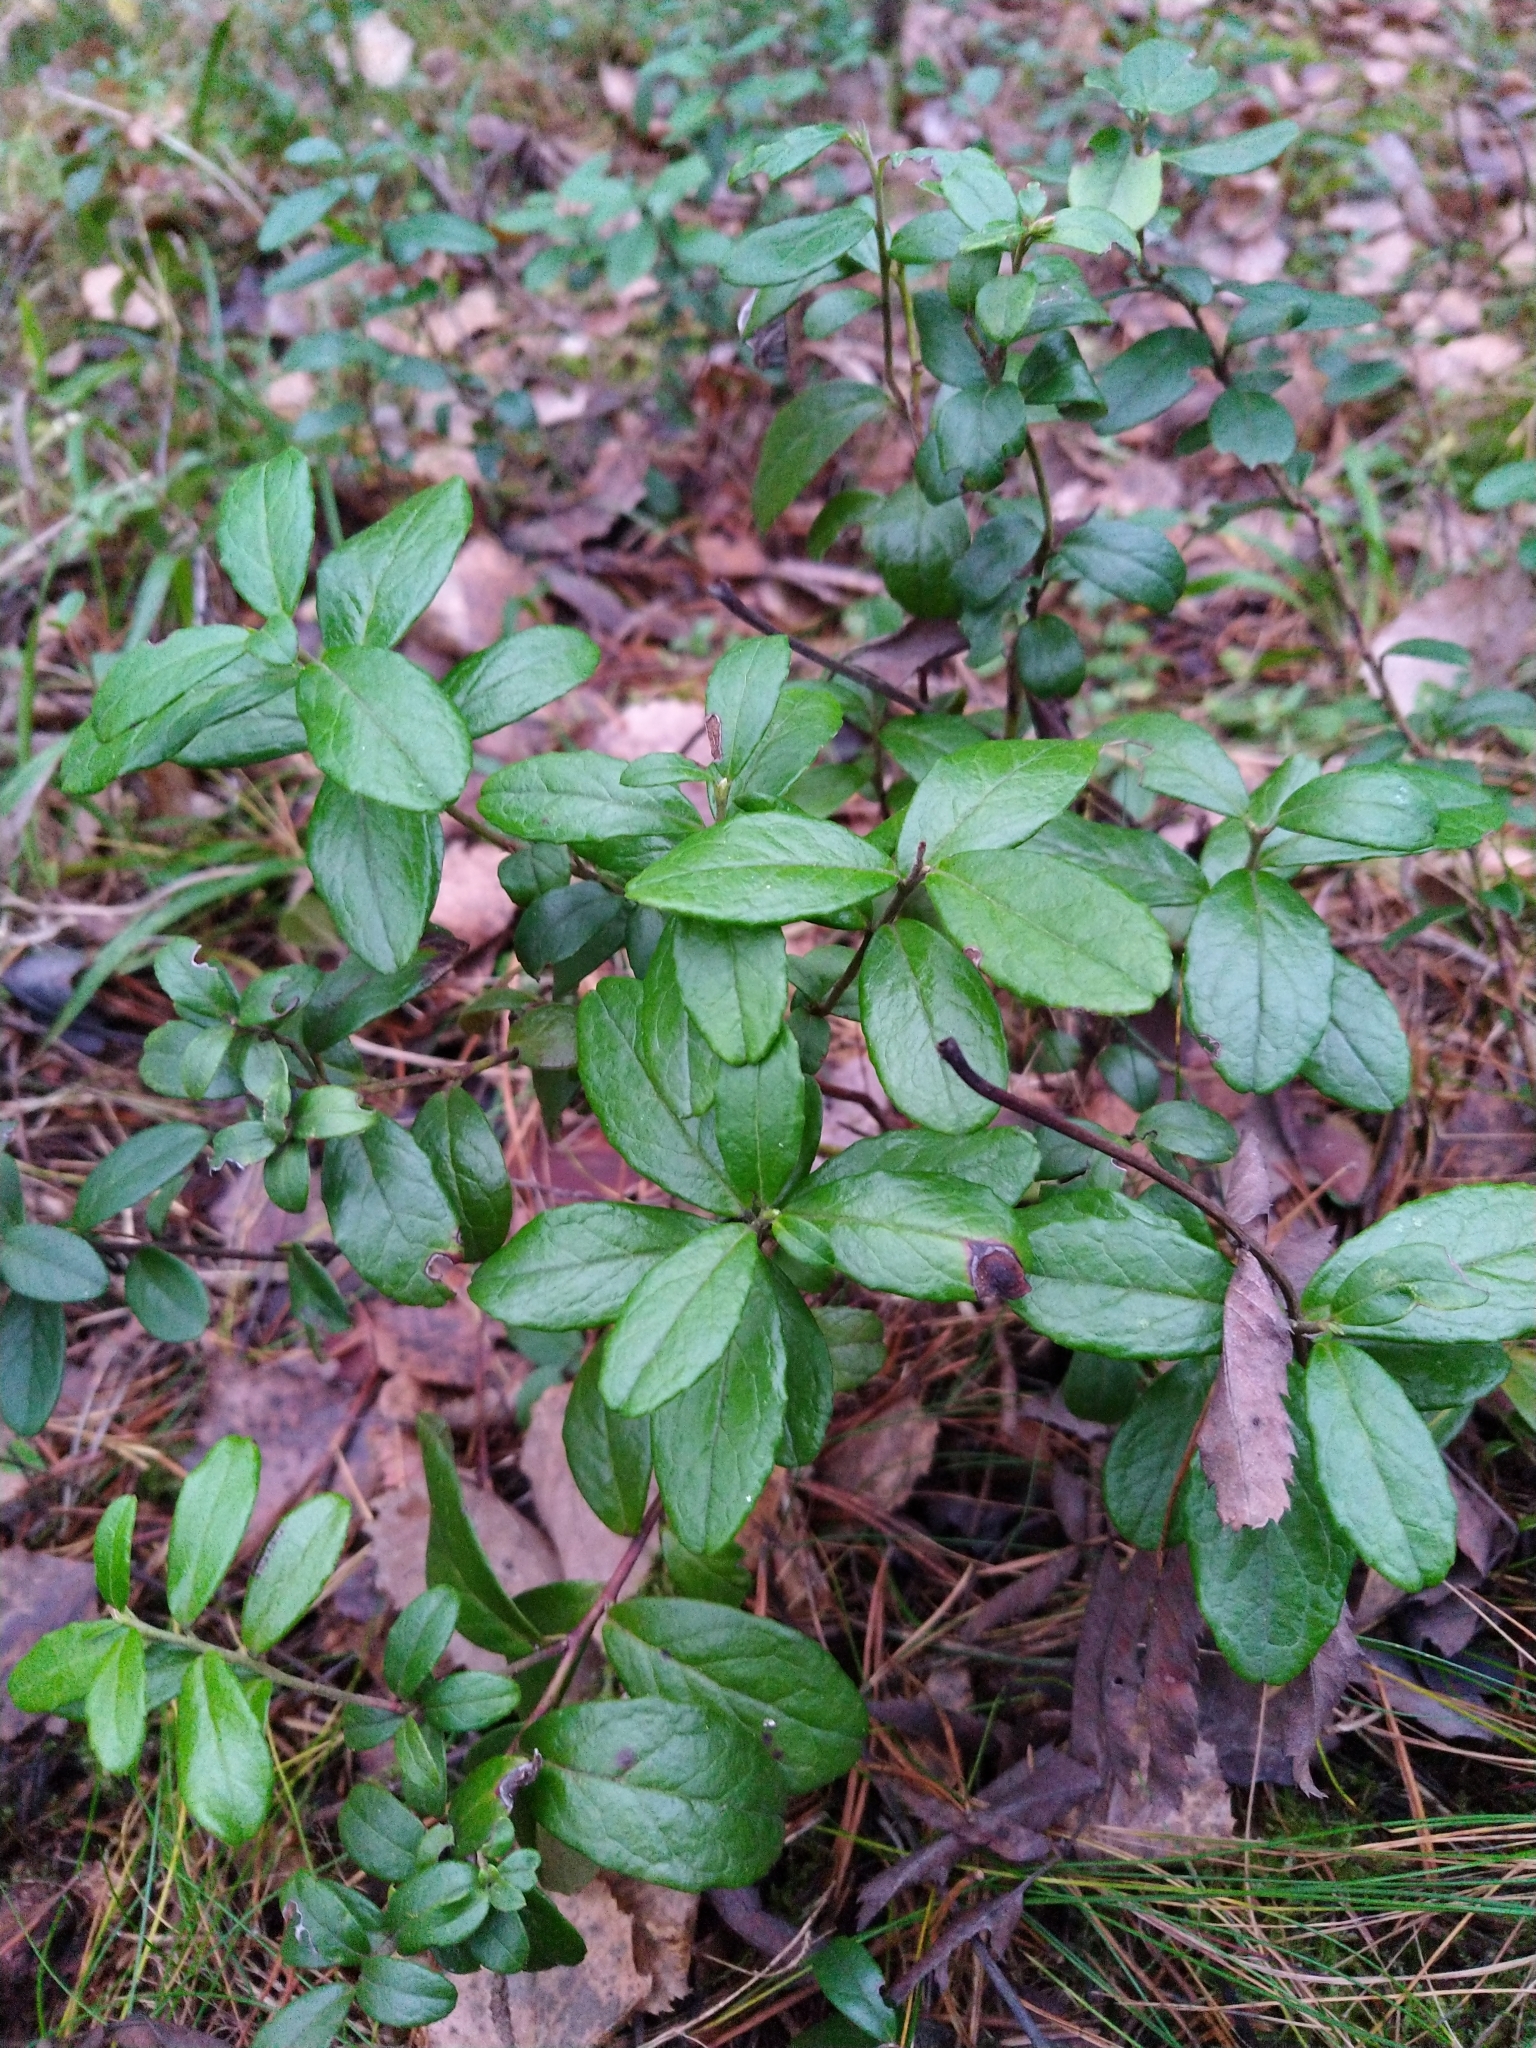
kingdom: Plantae
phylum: Tracheophyta
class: Magnoliopsida
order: Ericales
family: Ericaceae
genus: Vaccinium
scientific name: Vaccinium vitis-idaea
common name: Cowberry
